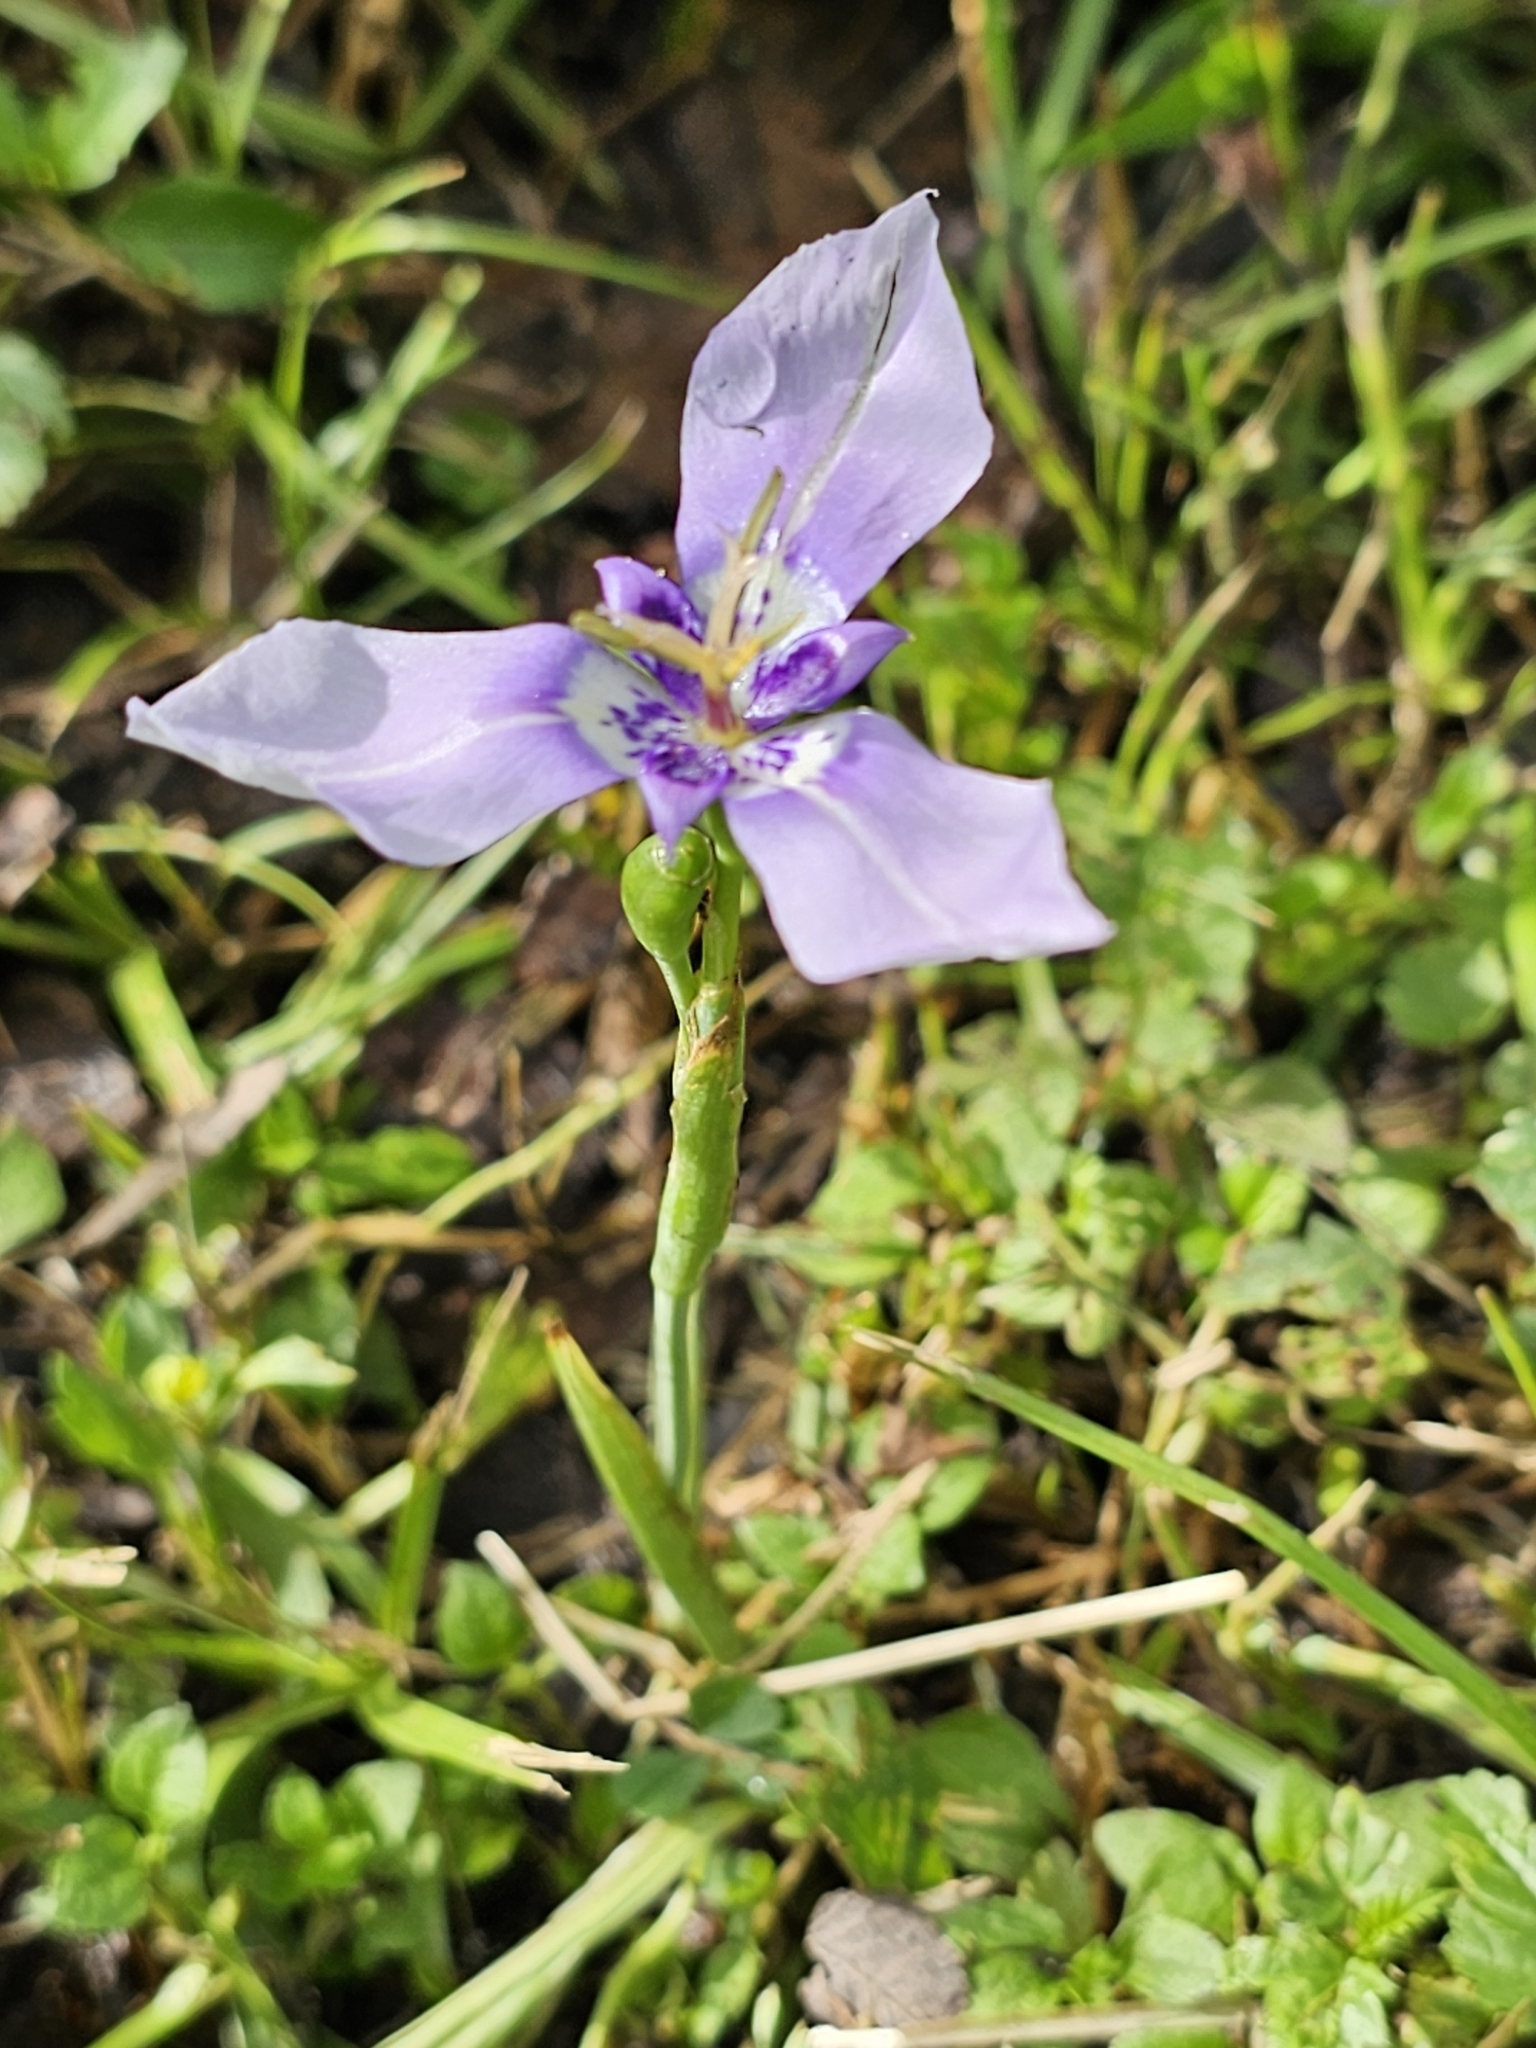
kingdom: Plantae
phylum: Tracheophyta
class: Liliopsida
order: Asparagales
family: Iridaceae
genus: Herbertia
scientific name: Herbertia lahue
